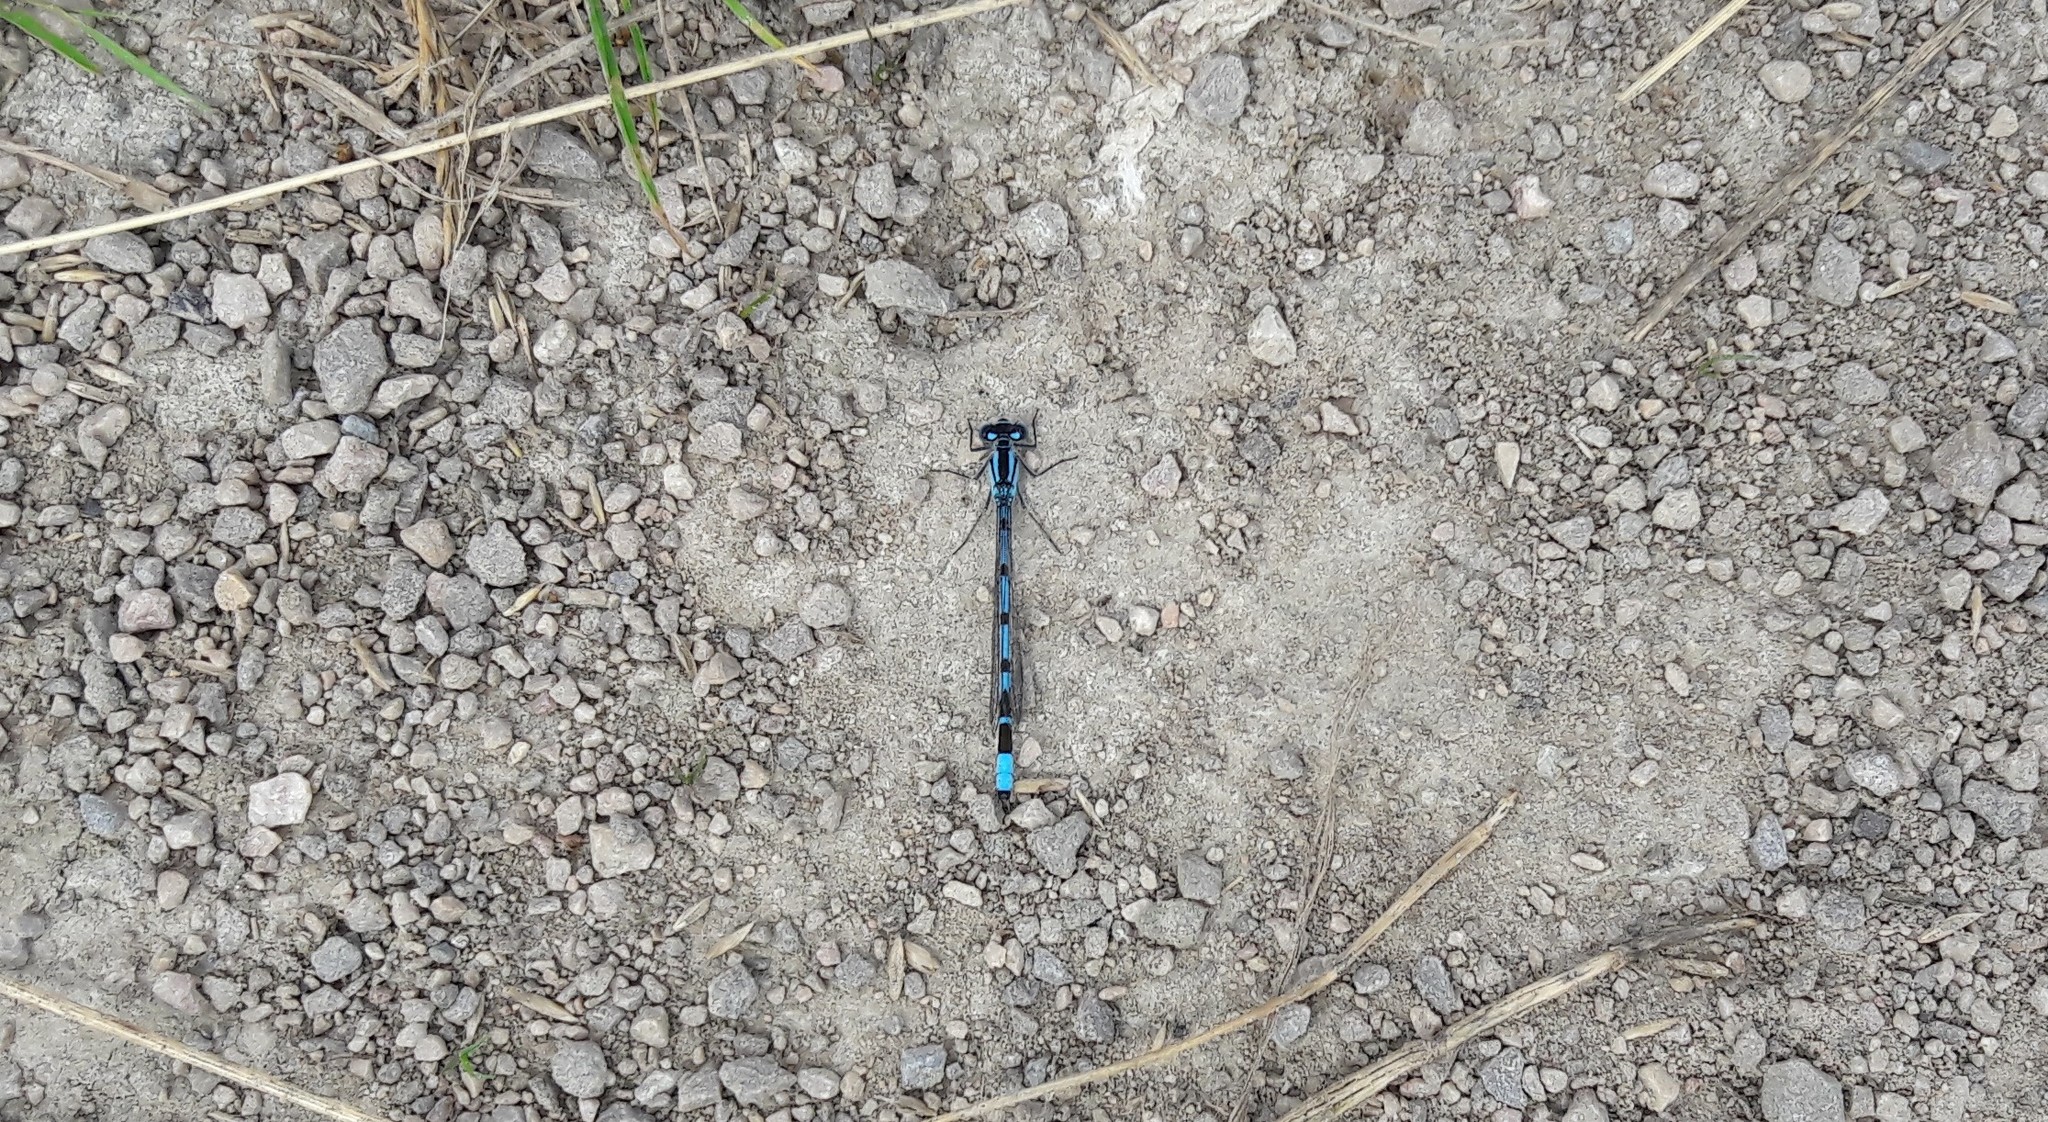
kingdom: Animalia
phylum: Arthropoda
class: Insecta
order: Odonata
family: Coenagrionidae
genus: Enallagma
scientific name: Enallagma cyathigerum
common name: Common blue damselfly
